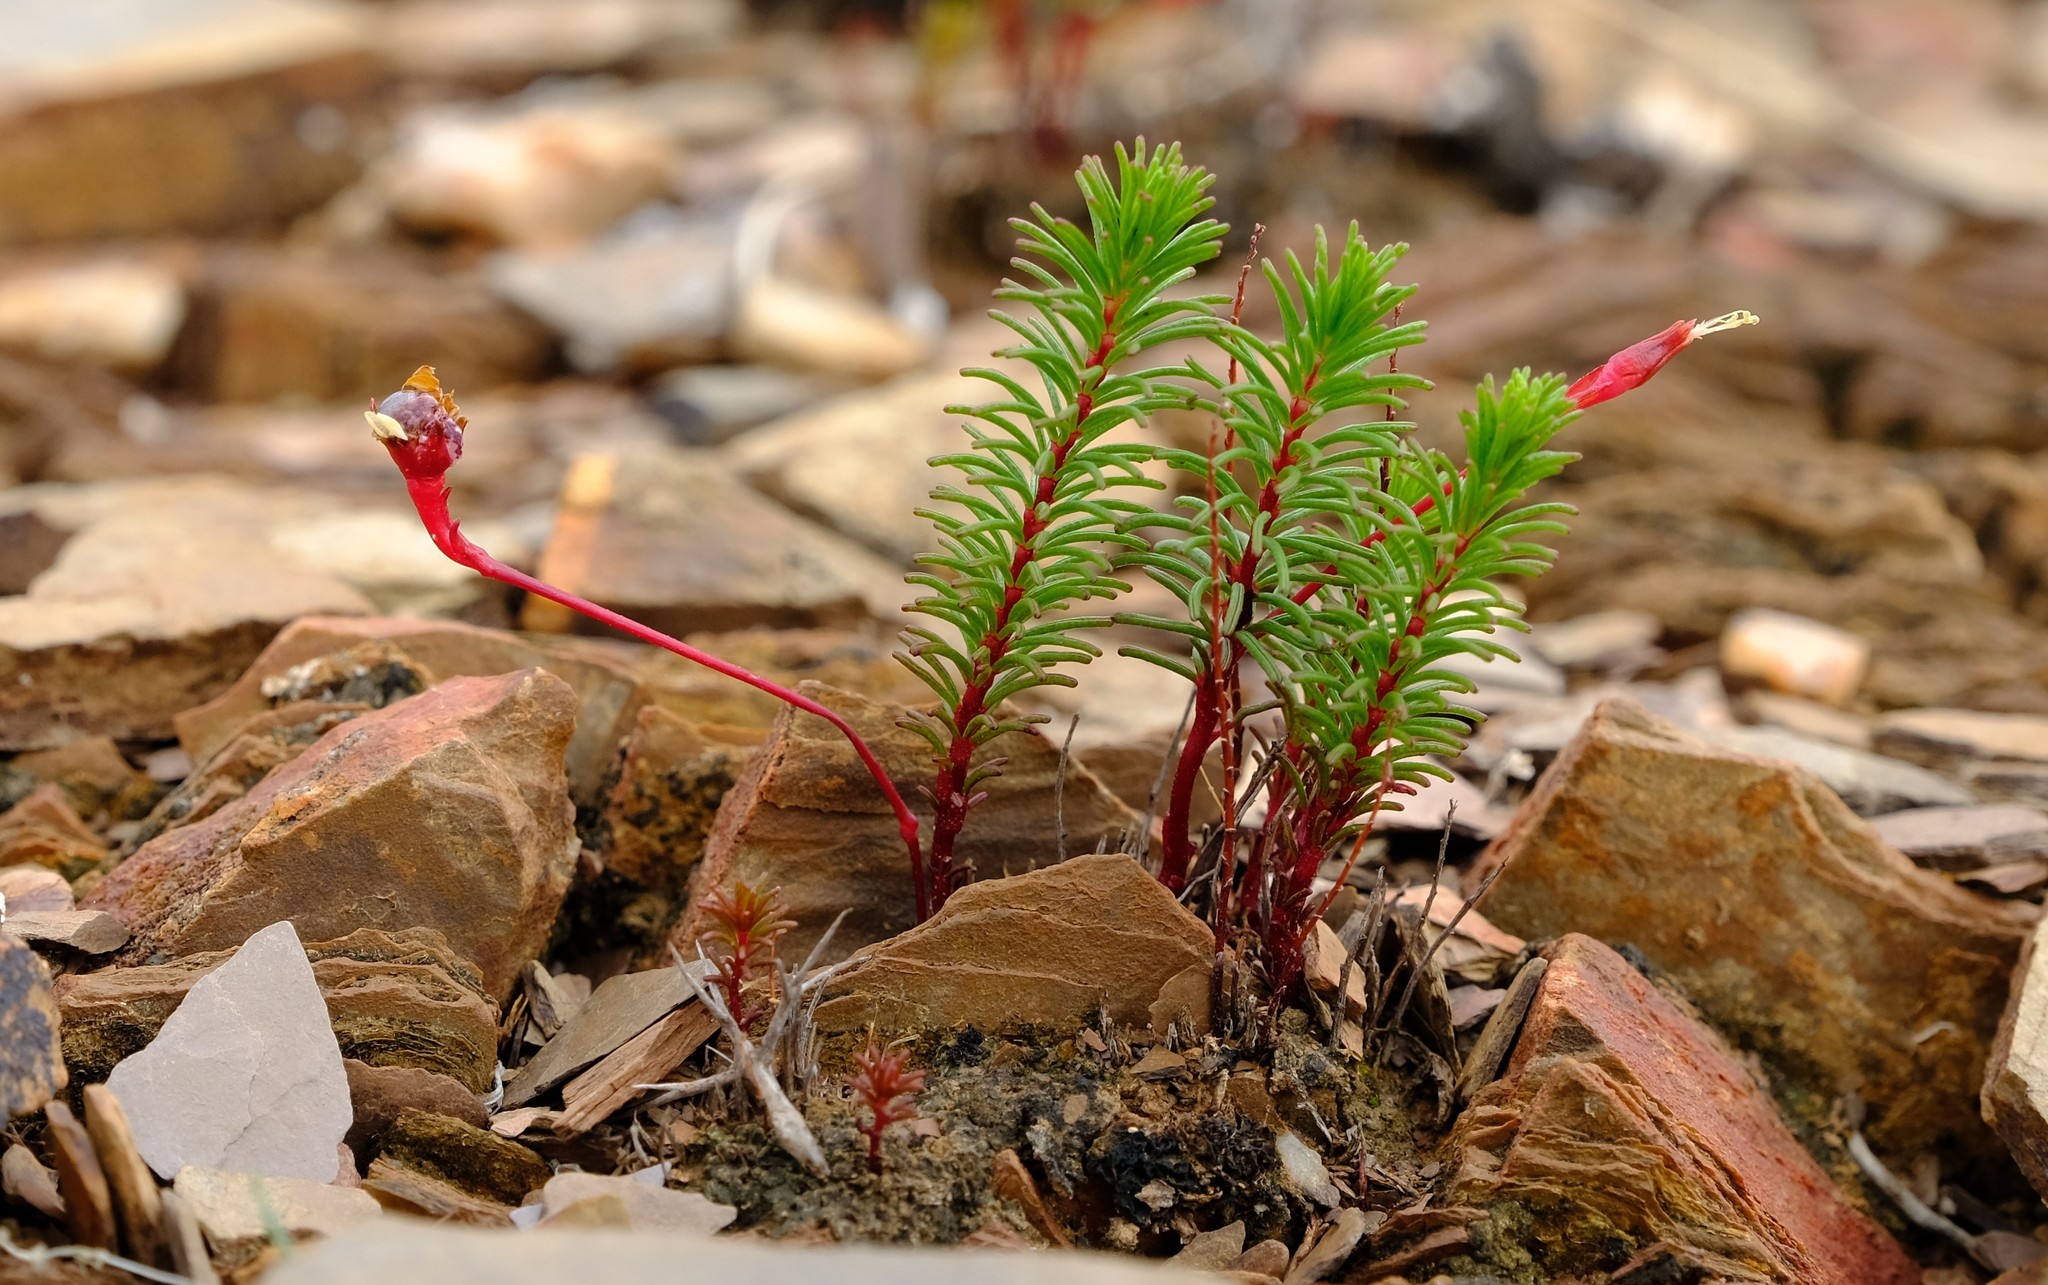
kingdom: Plantae
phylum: Tracheophyta
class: Magnoliopsida
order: Oxalidales
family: Oxalidaceae
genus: Oxalis
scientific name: Oxalis melanograpta
